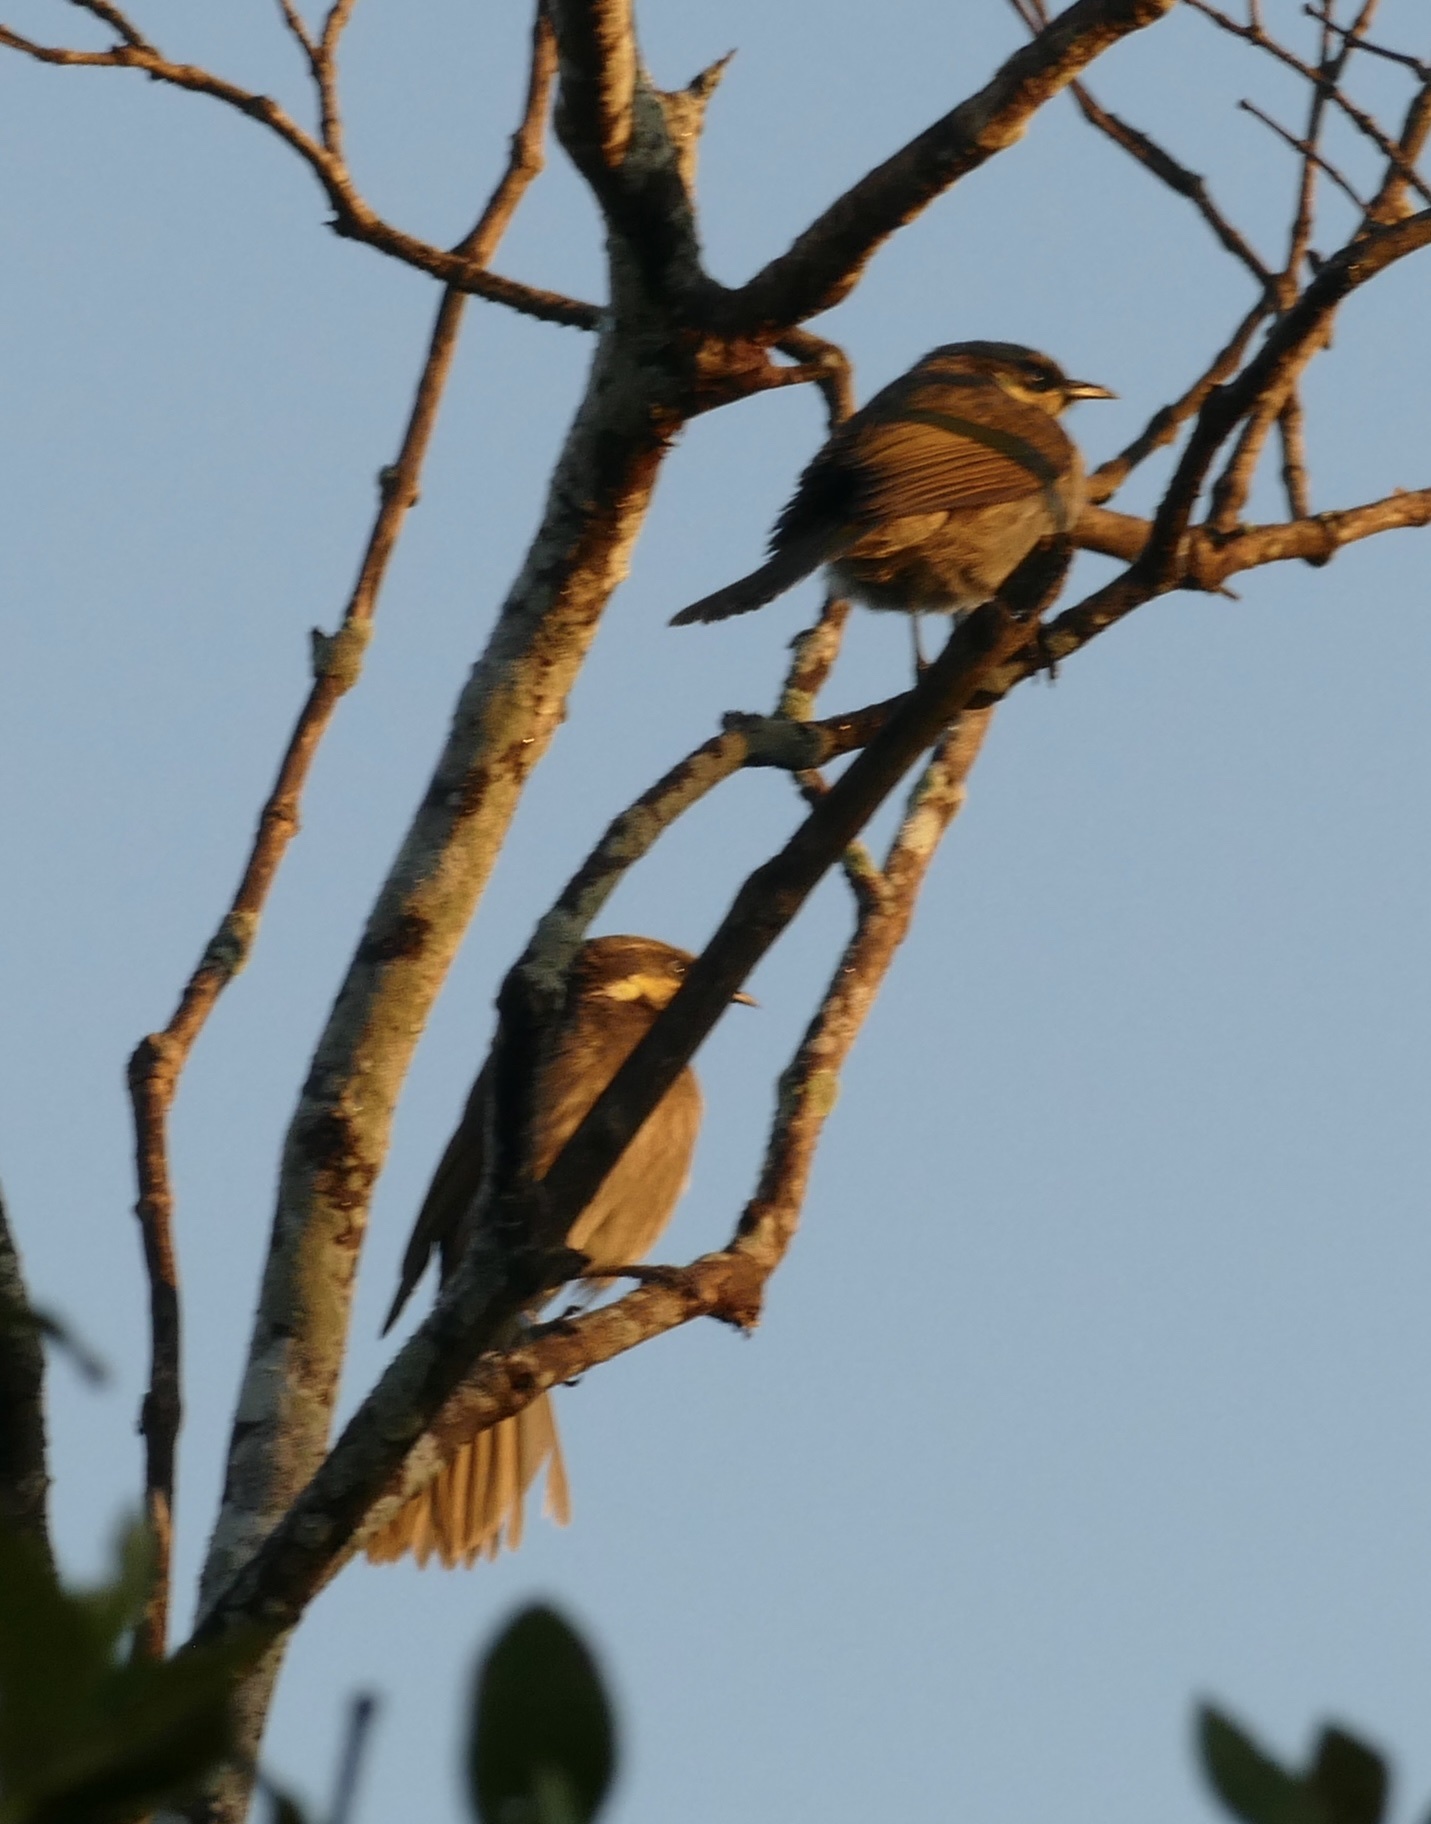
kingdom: Animalia
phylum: Chordata
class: Aves
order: Passeriformes
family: Meliphagidae
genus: Gavicalis
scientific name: Gavicalis fasciogularis
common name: Mangrove honeyeater
